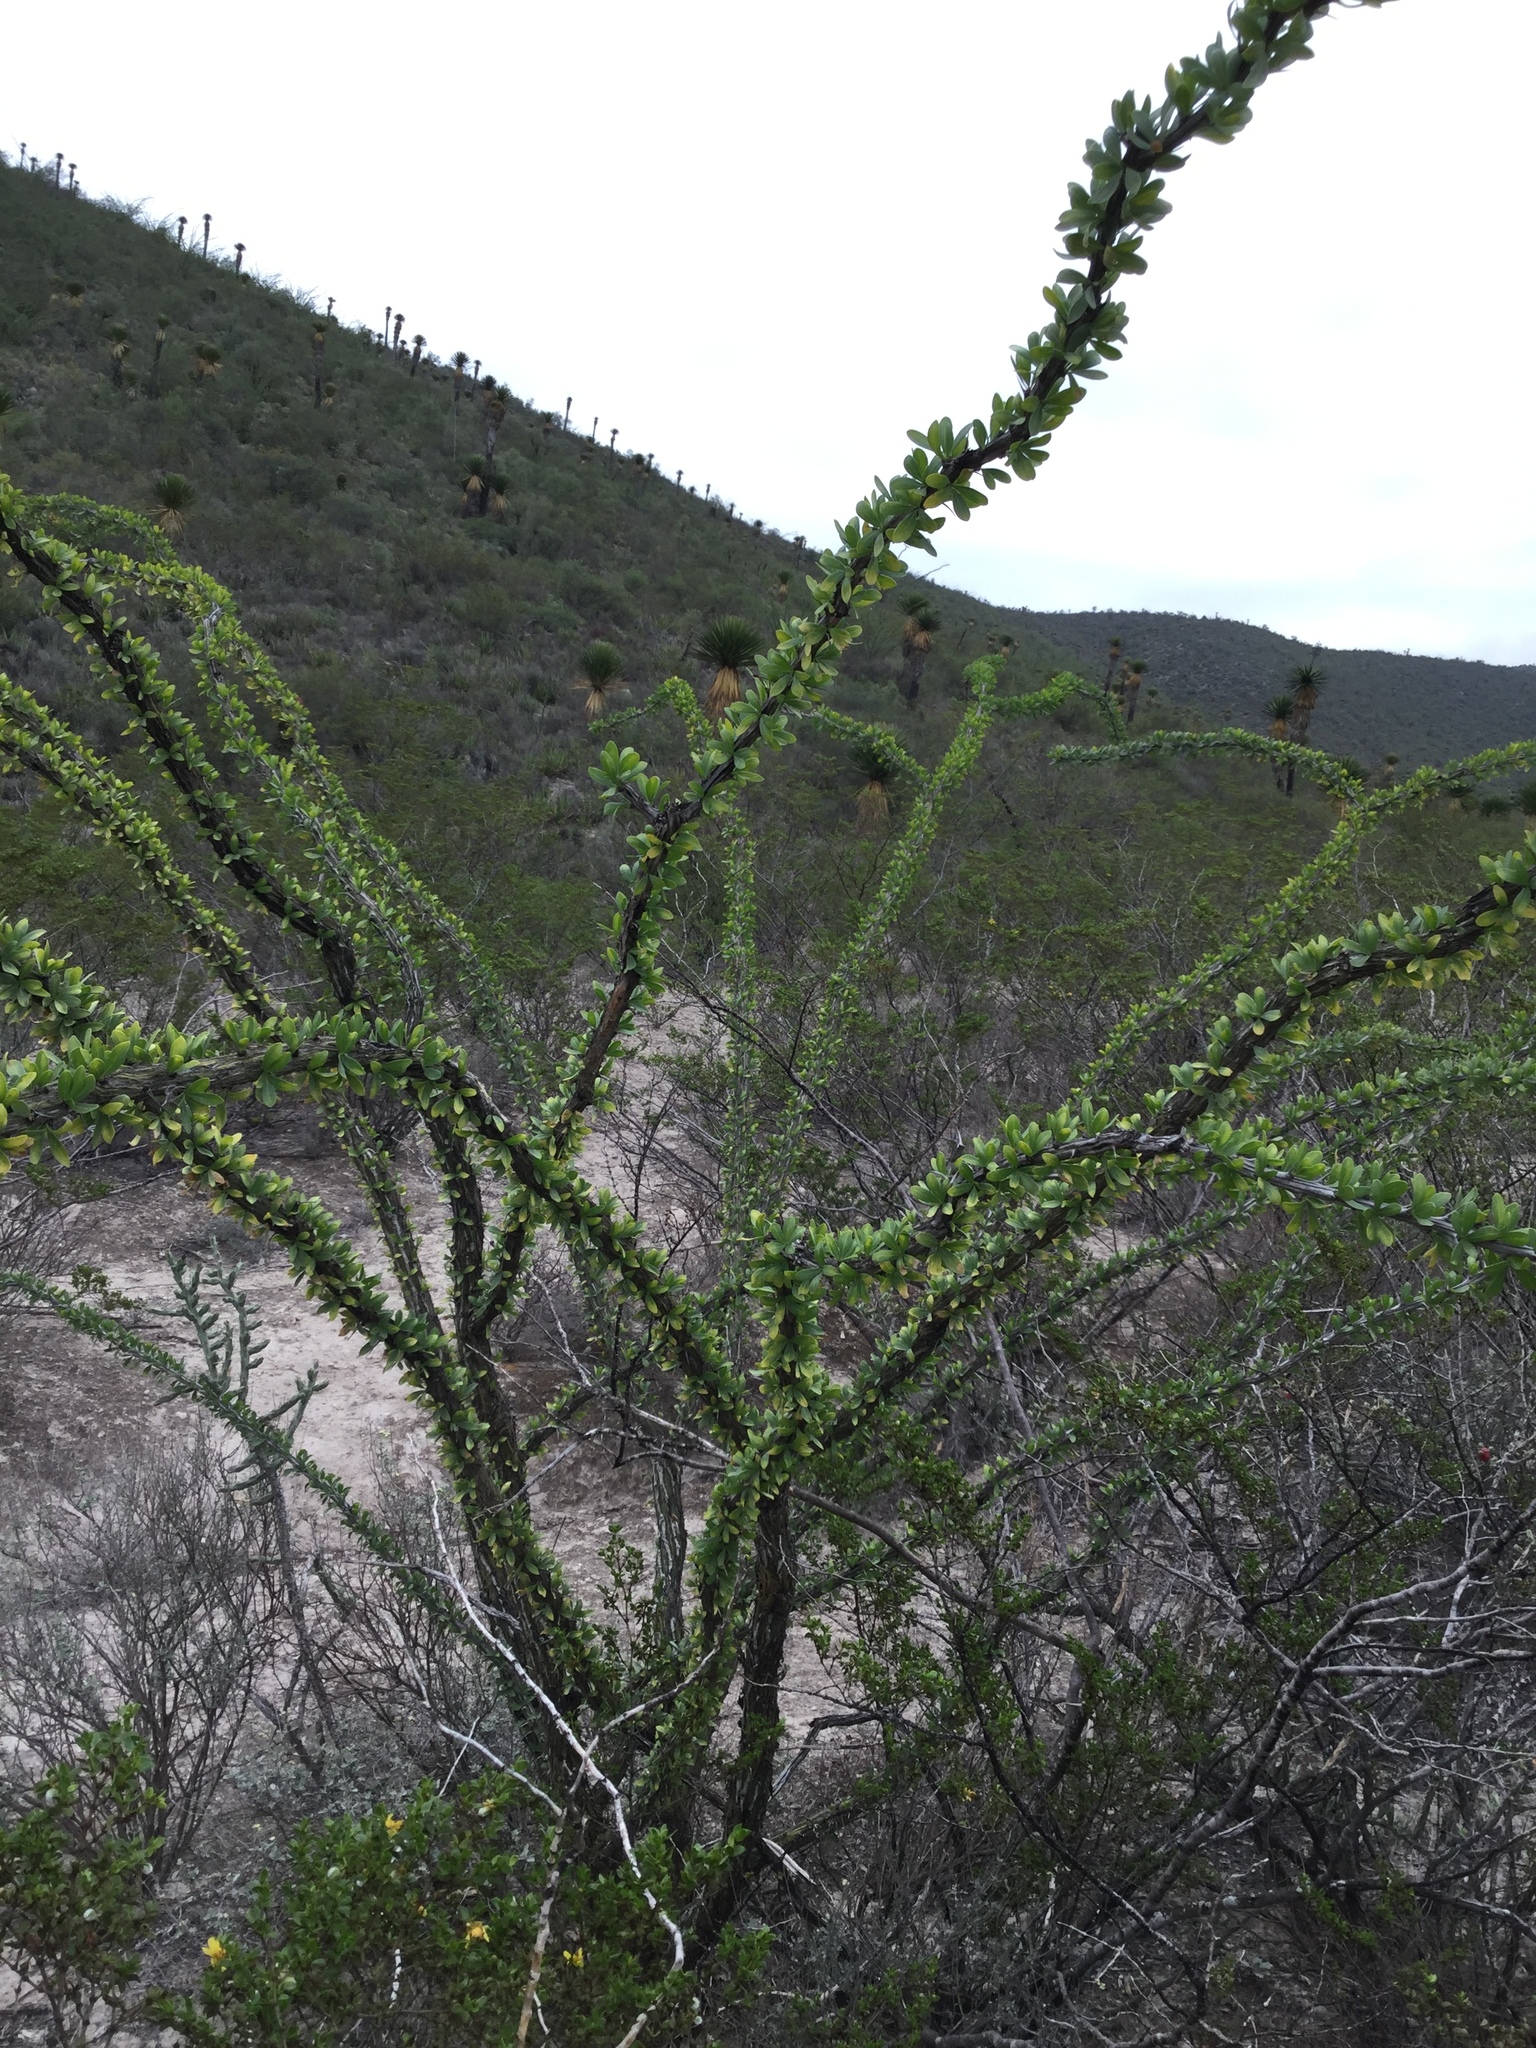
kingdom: Plantae
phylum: Tracheophyta
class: Magnoliopsida
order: Ericales
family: Fouquieriaceae
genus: Fouquieria
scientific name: Fouquieria splendens
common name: Vine-cactus
